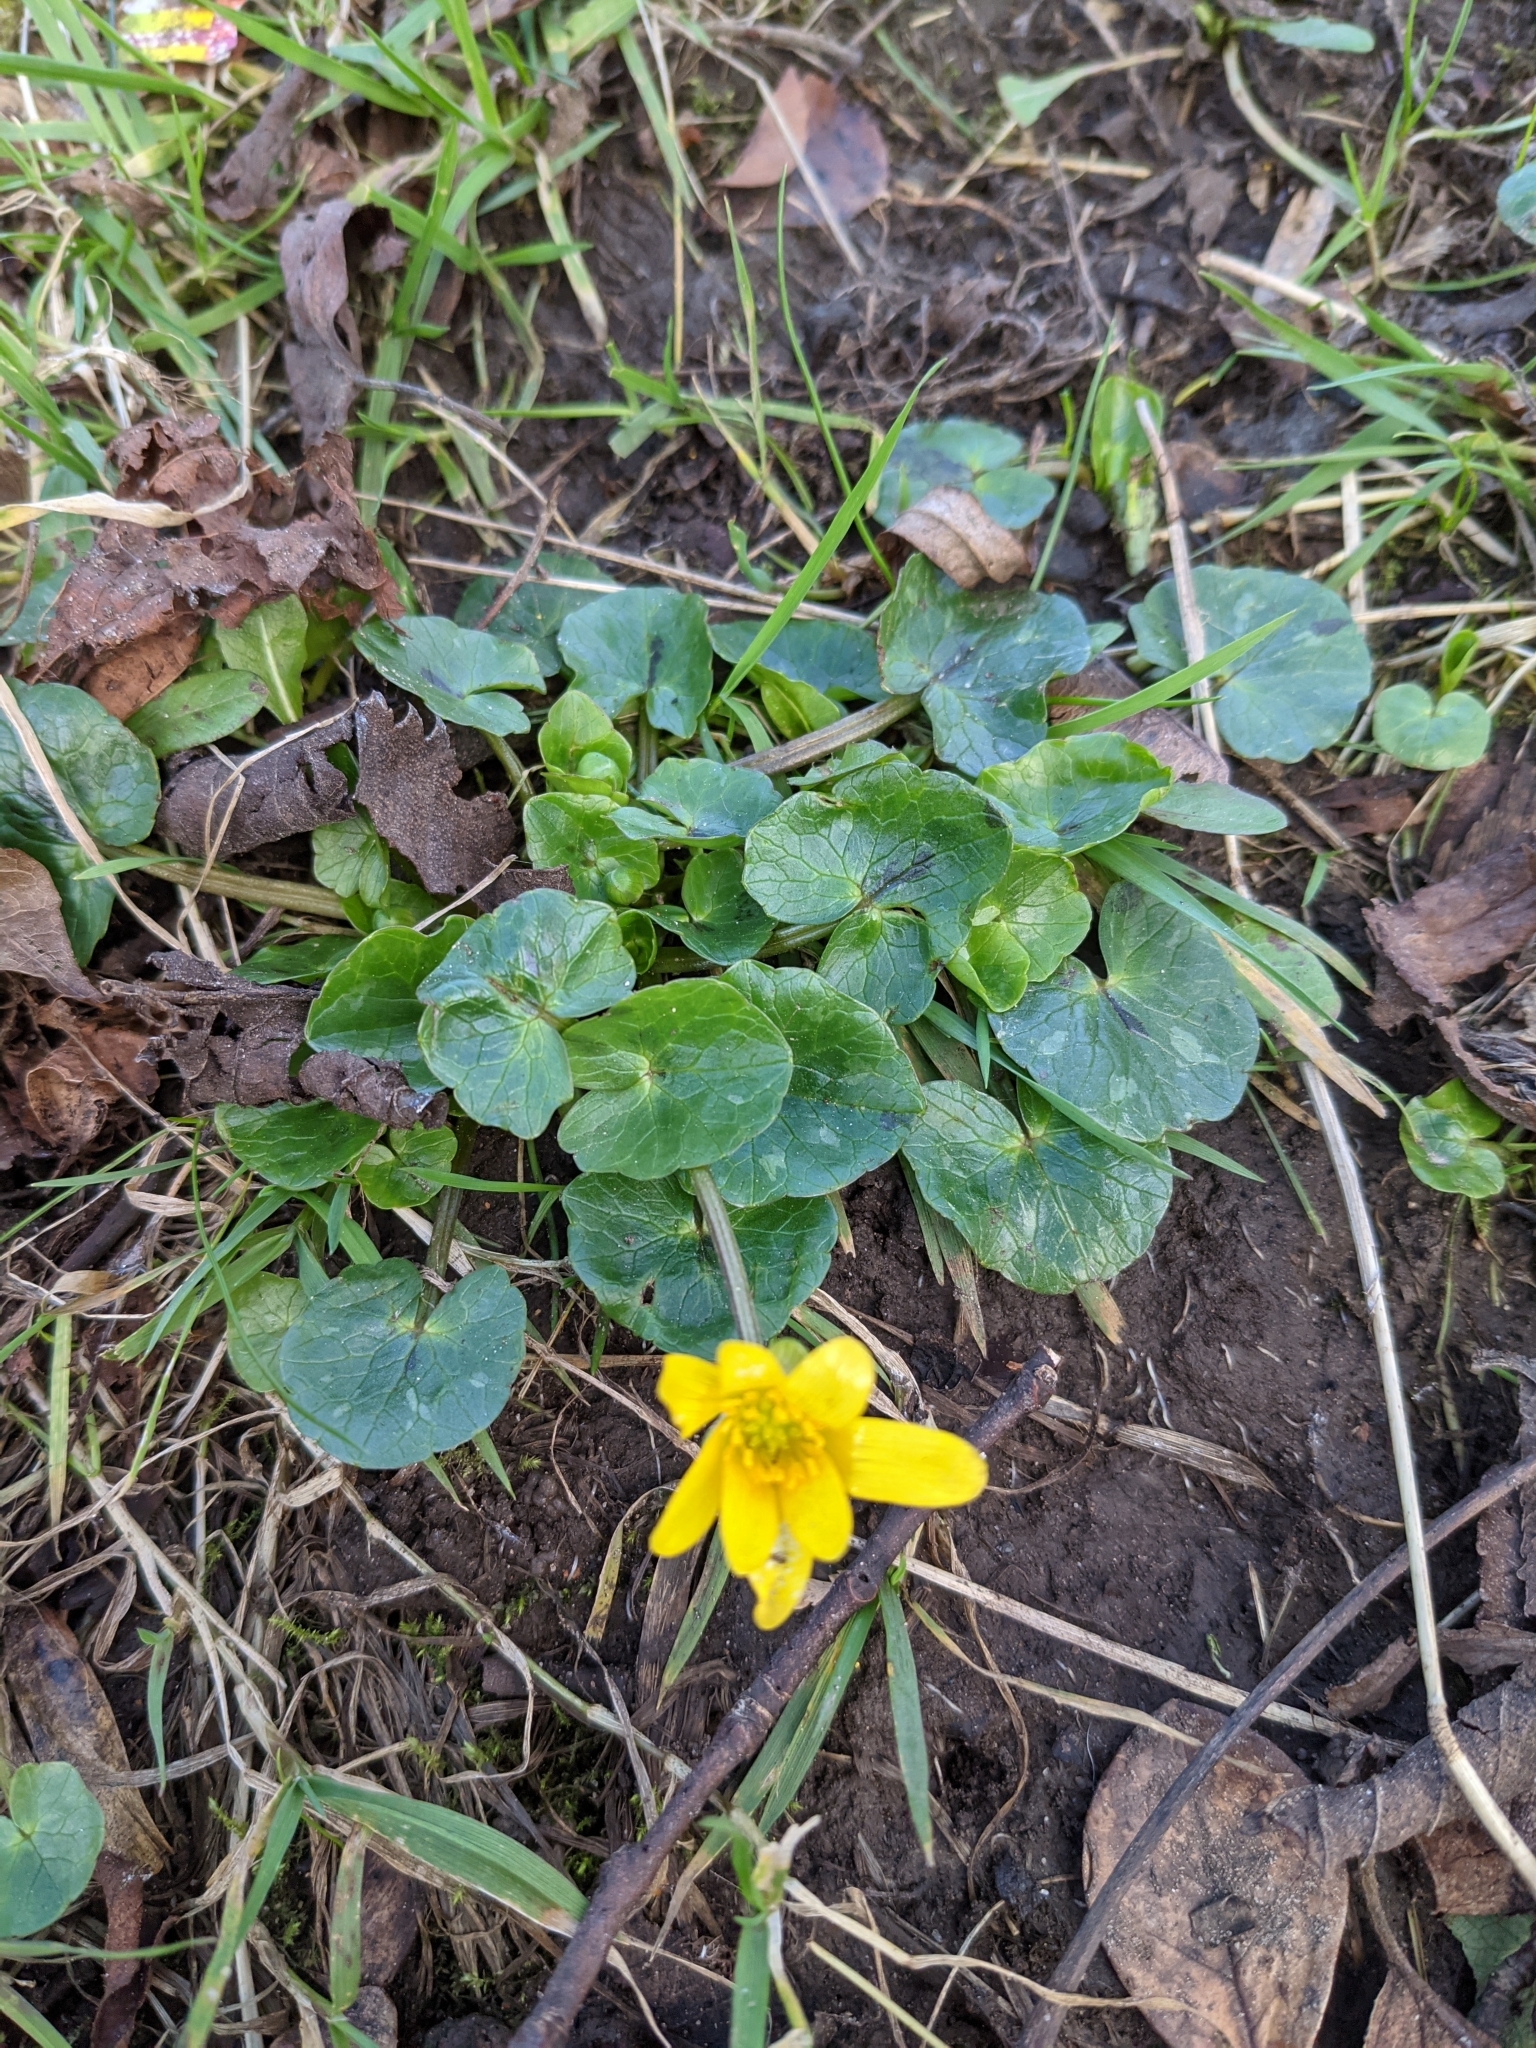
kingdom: Plantae
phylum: Tracheophyta
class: Magnoliopsida
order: Ranunculales
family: Ranunculaceae
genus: Ficaria
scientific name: Ficaria verna
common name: Lesser celandine
